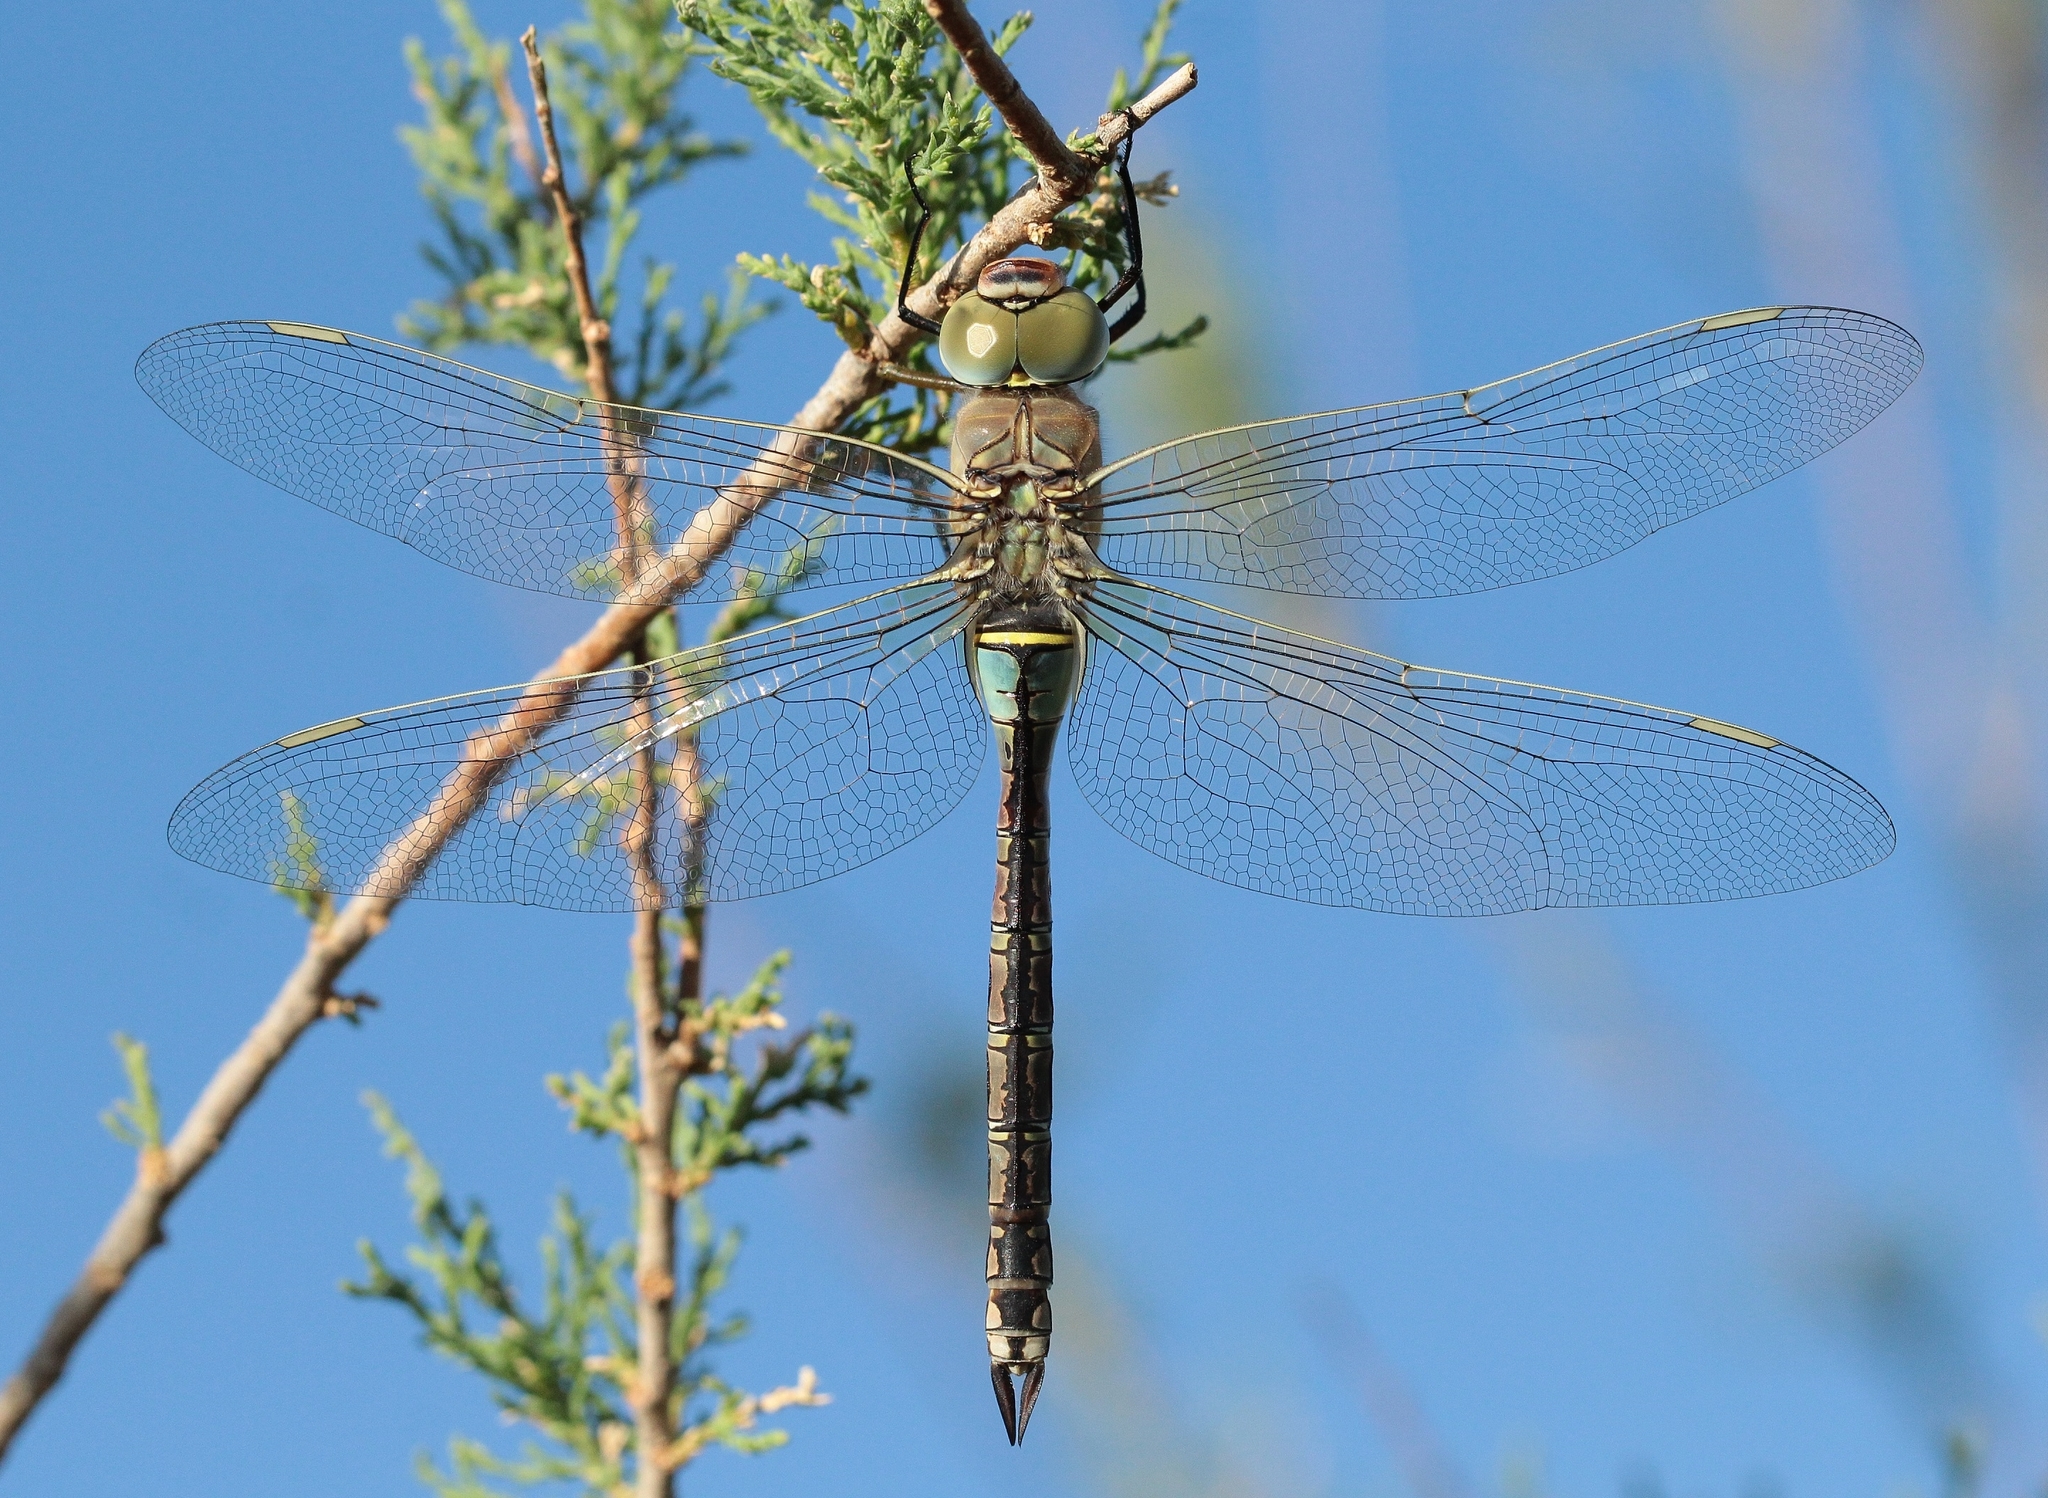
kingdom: Animalia
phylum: Arthropoda
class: Insecta
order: Odonata
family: Aeshnidae
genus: Anax
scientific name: Anax parthenope
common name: Lesser emperor
